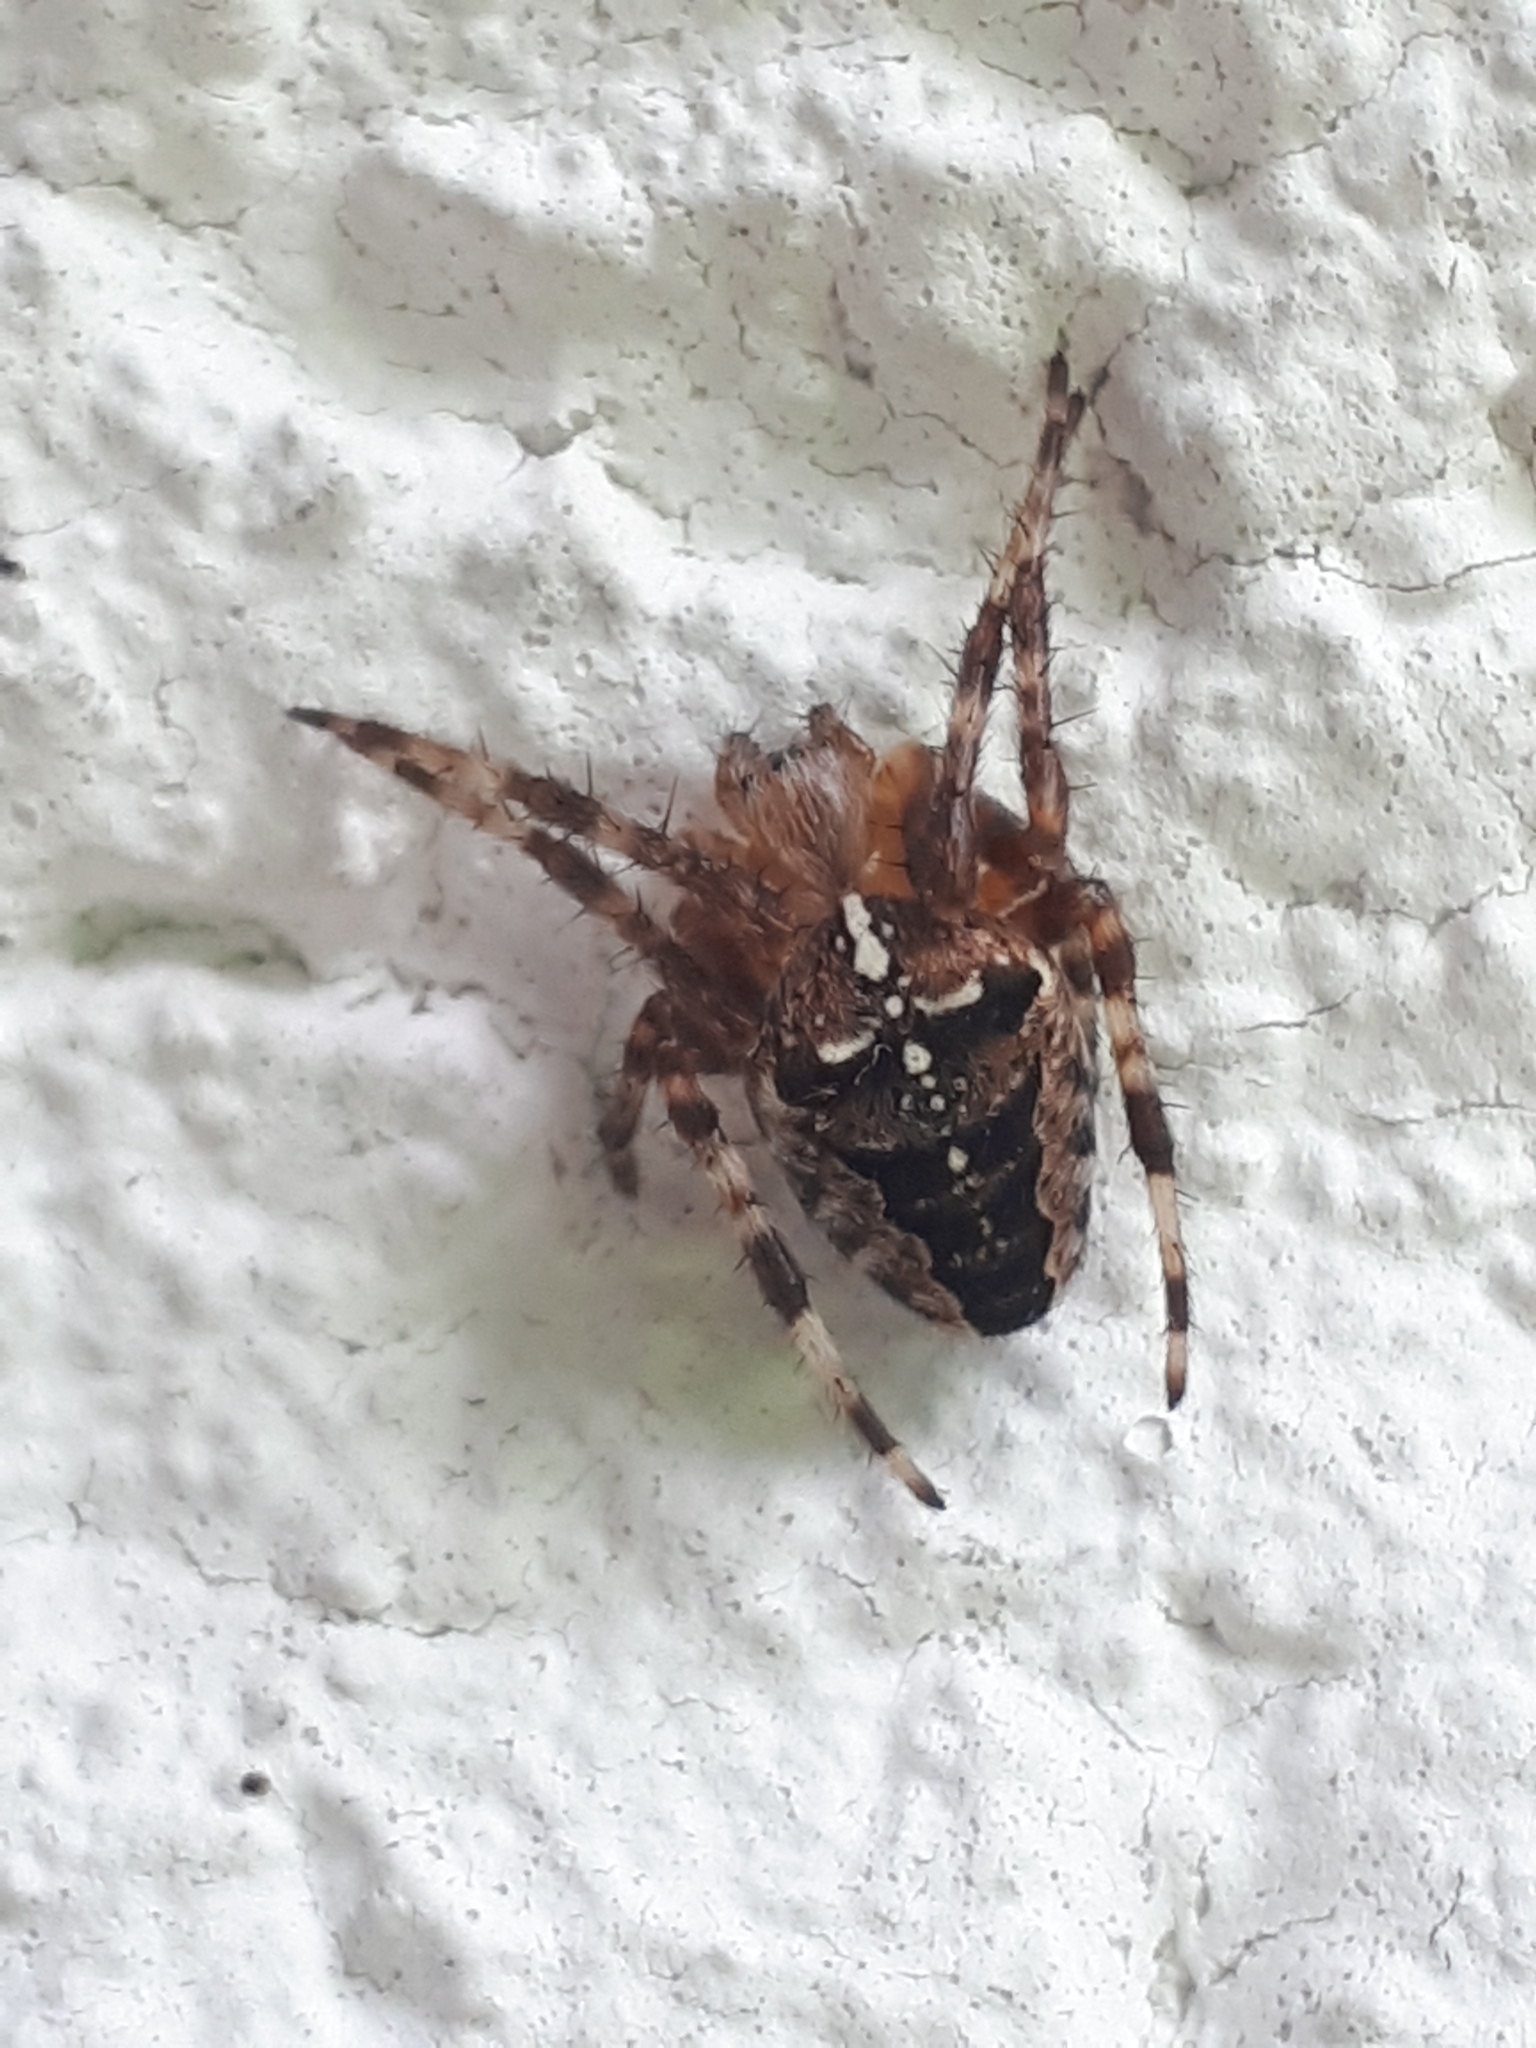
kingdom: Animalia
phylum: Arthropoda
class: Arachnida
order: Araneae
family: Araneidae
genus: Araneus
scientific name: Araneus diadematus
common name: Cross orbweaver
